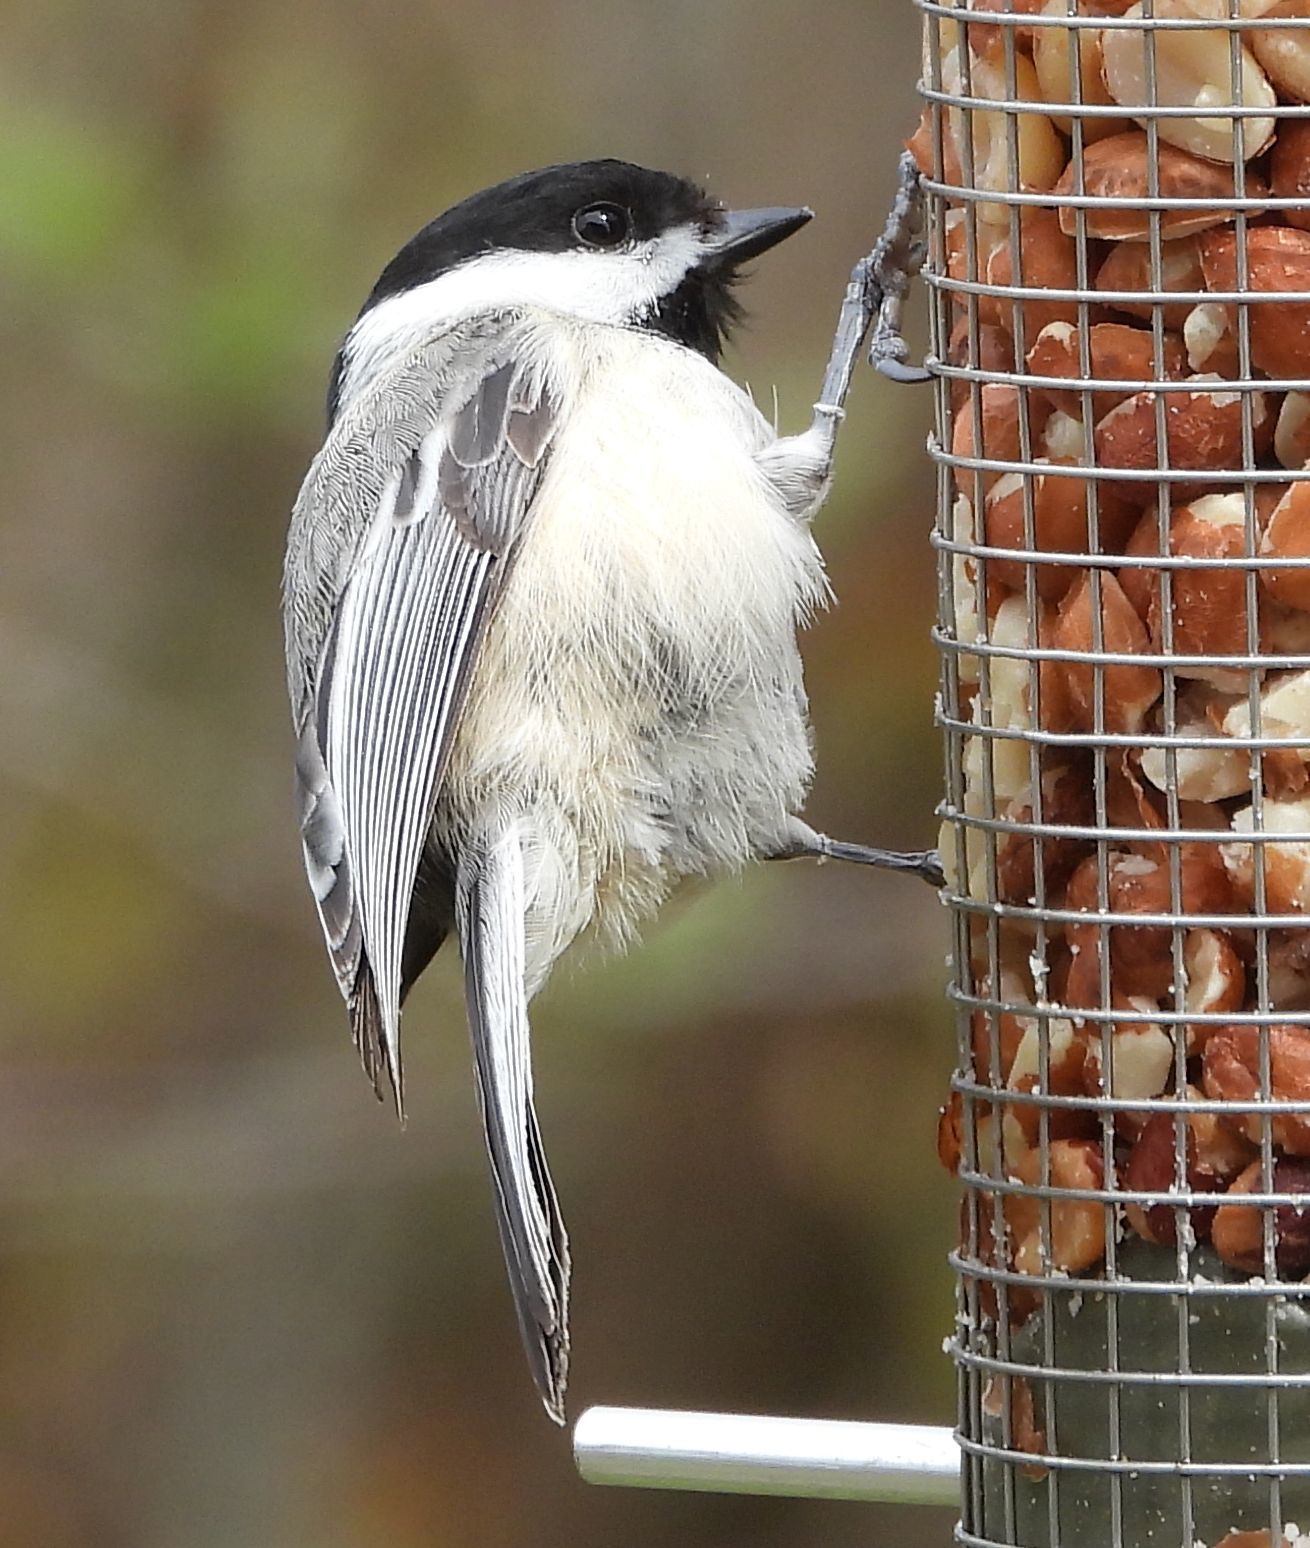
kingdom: Animalia
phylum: Chordata
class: Aves
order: Passeriformes
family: Paridae
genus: Poecile
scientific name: Poecile atricapillus
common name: Black-capped chickadee
